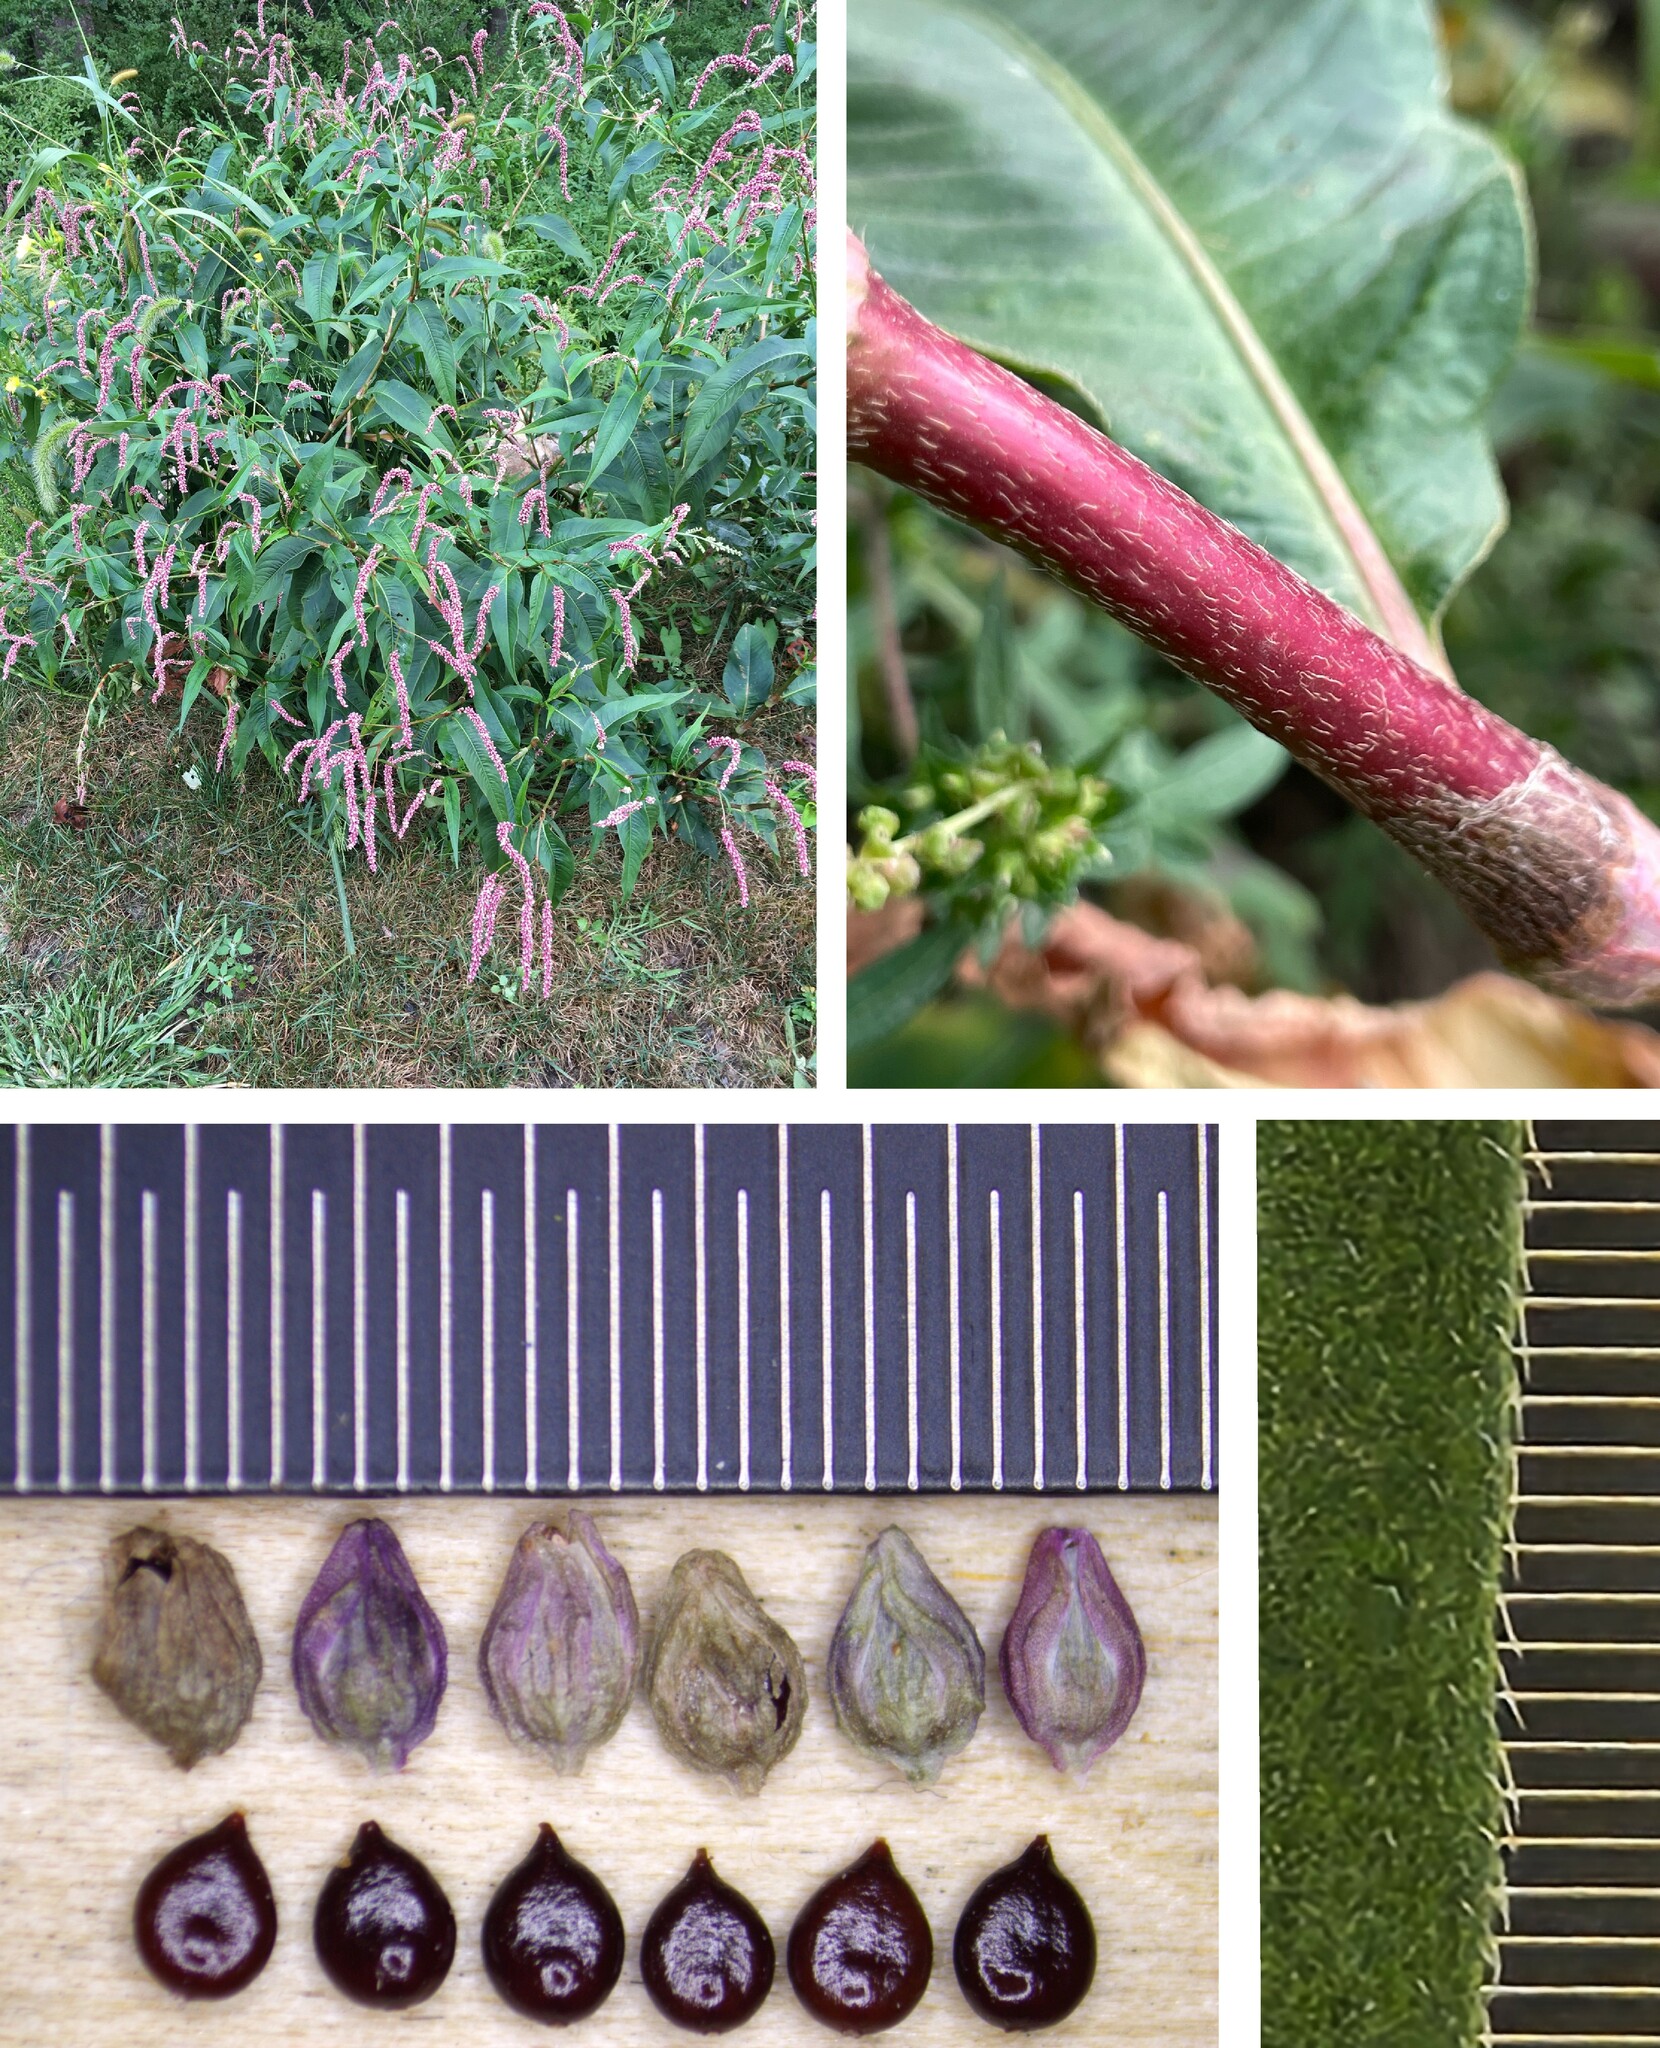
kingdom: Plantae
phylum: Tracheophyta
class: Magnoliopsida
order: Caryophyllales
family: Polygonaceae
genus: Persicaria
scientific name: Persicaria extremiorientalis
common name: Far-eastern smartweed
